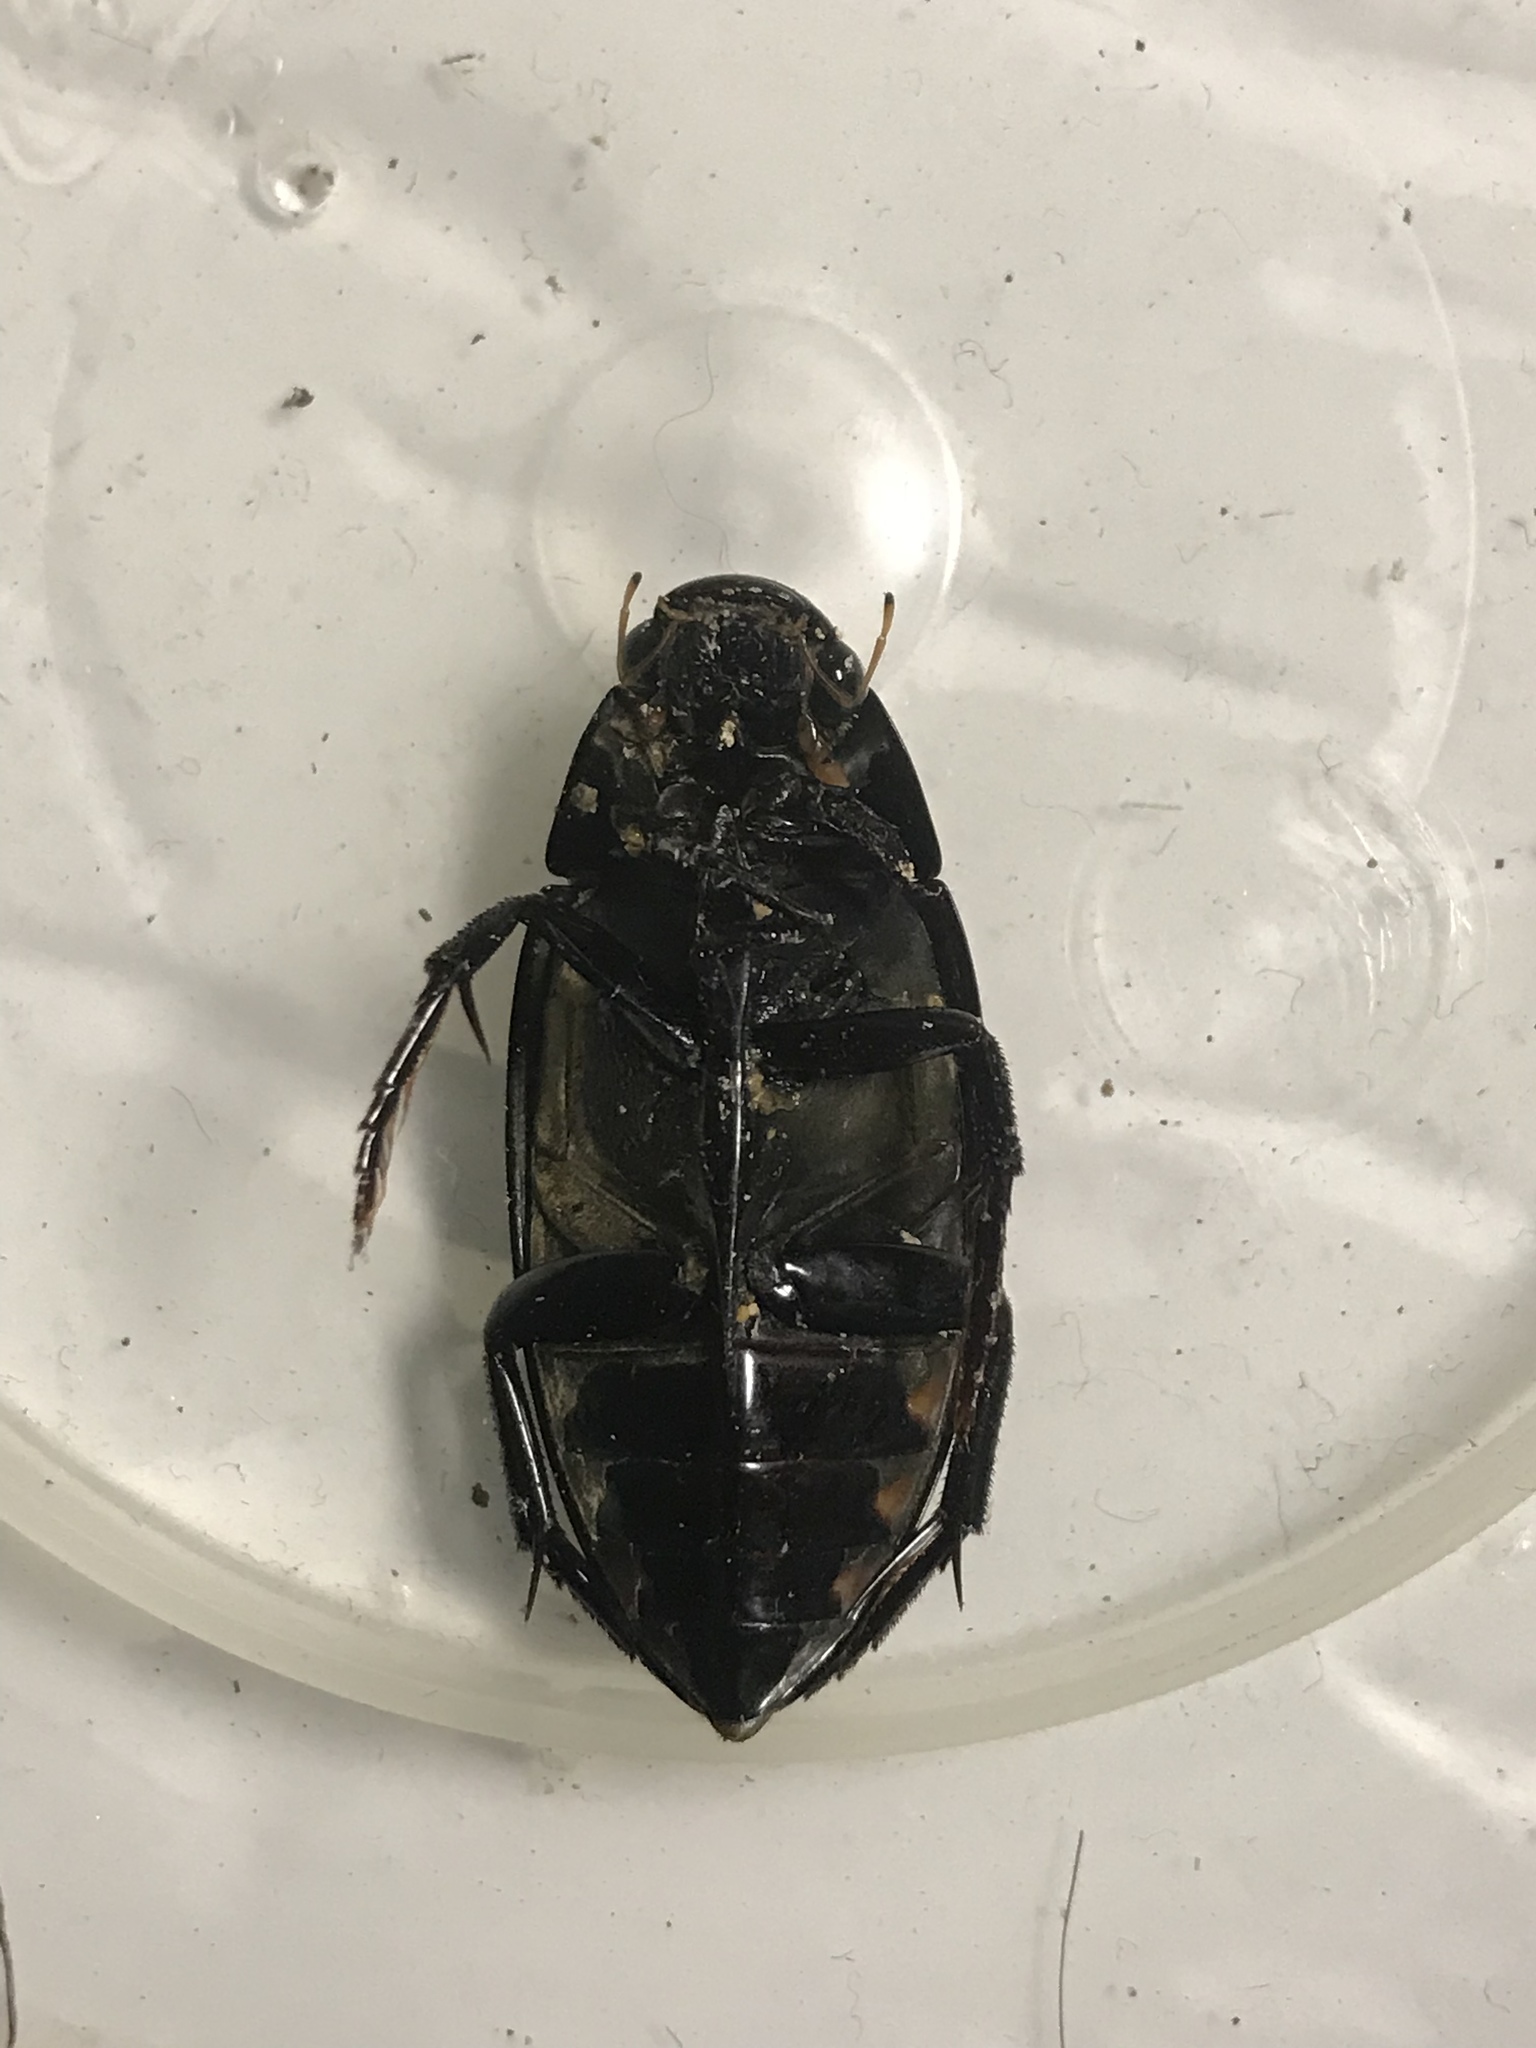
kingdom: Animalia
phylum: Arthropoda
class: Insecta
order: Coleoptera
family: Hydrophilidae
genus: Hydrophilus
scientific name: Hydrophilus triangularis
